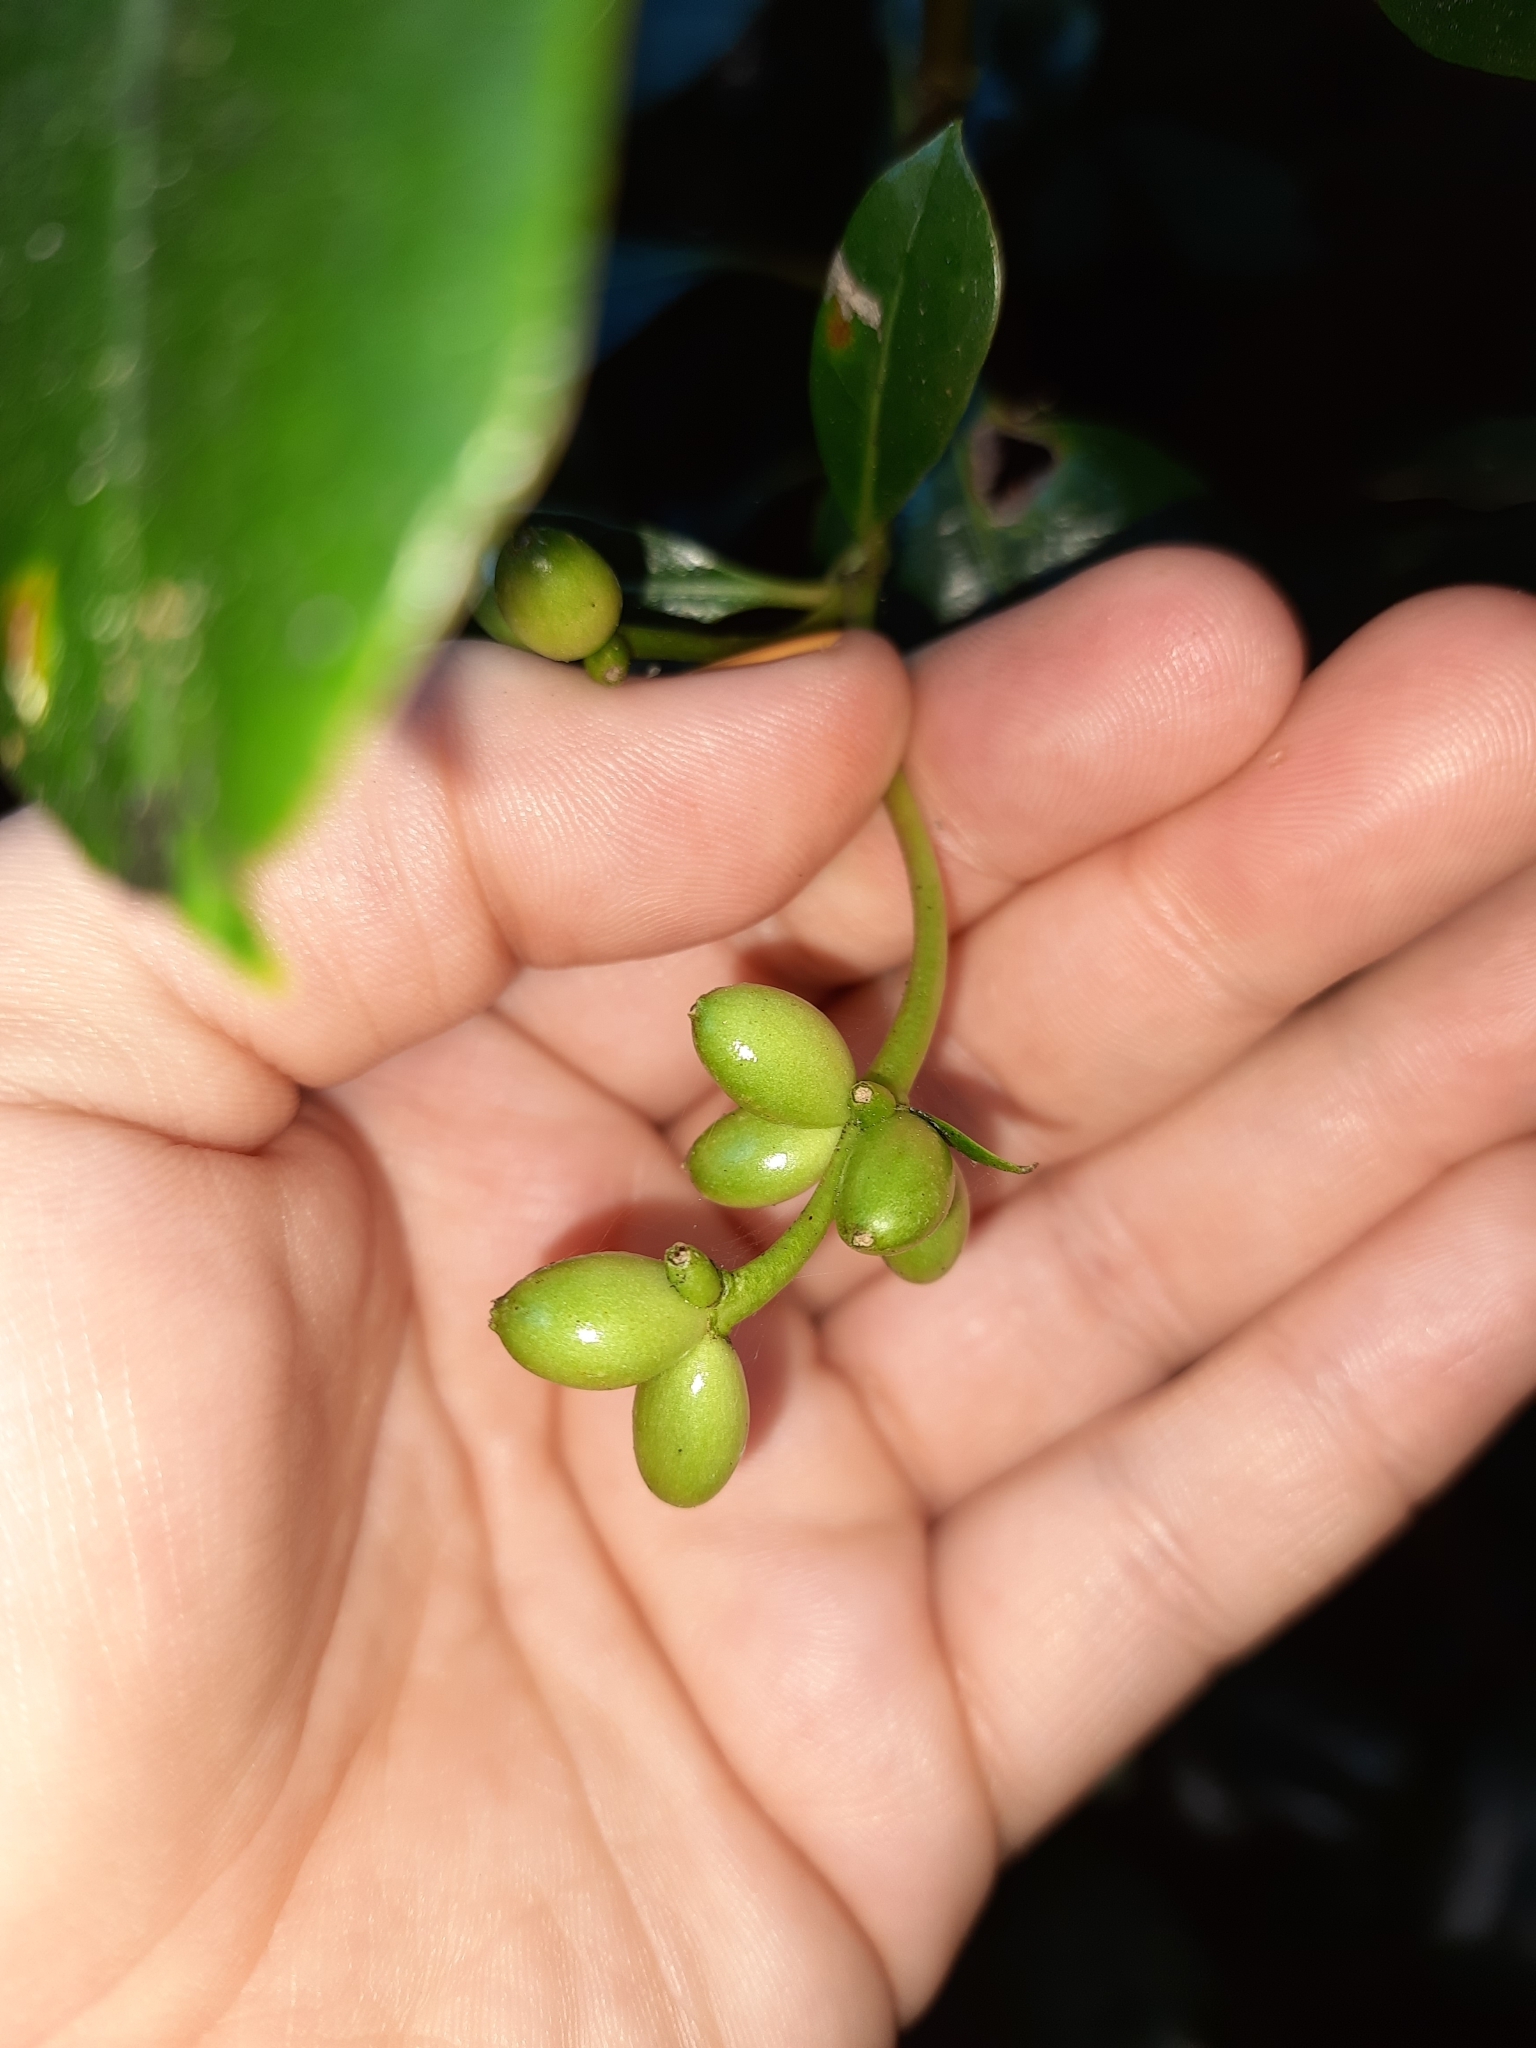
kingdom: Plantae
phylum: Tracheophyta
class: Magnoliopsida
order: Gentianales
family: Rubiaceae
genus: Coprosma
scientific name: Coprosma lucida
